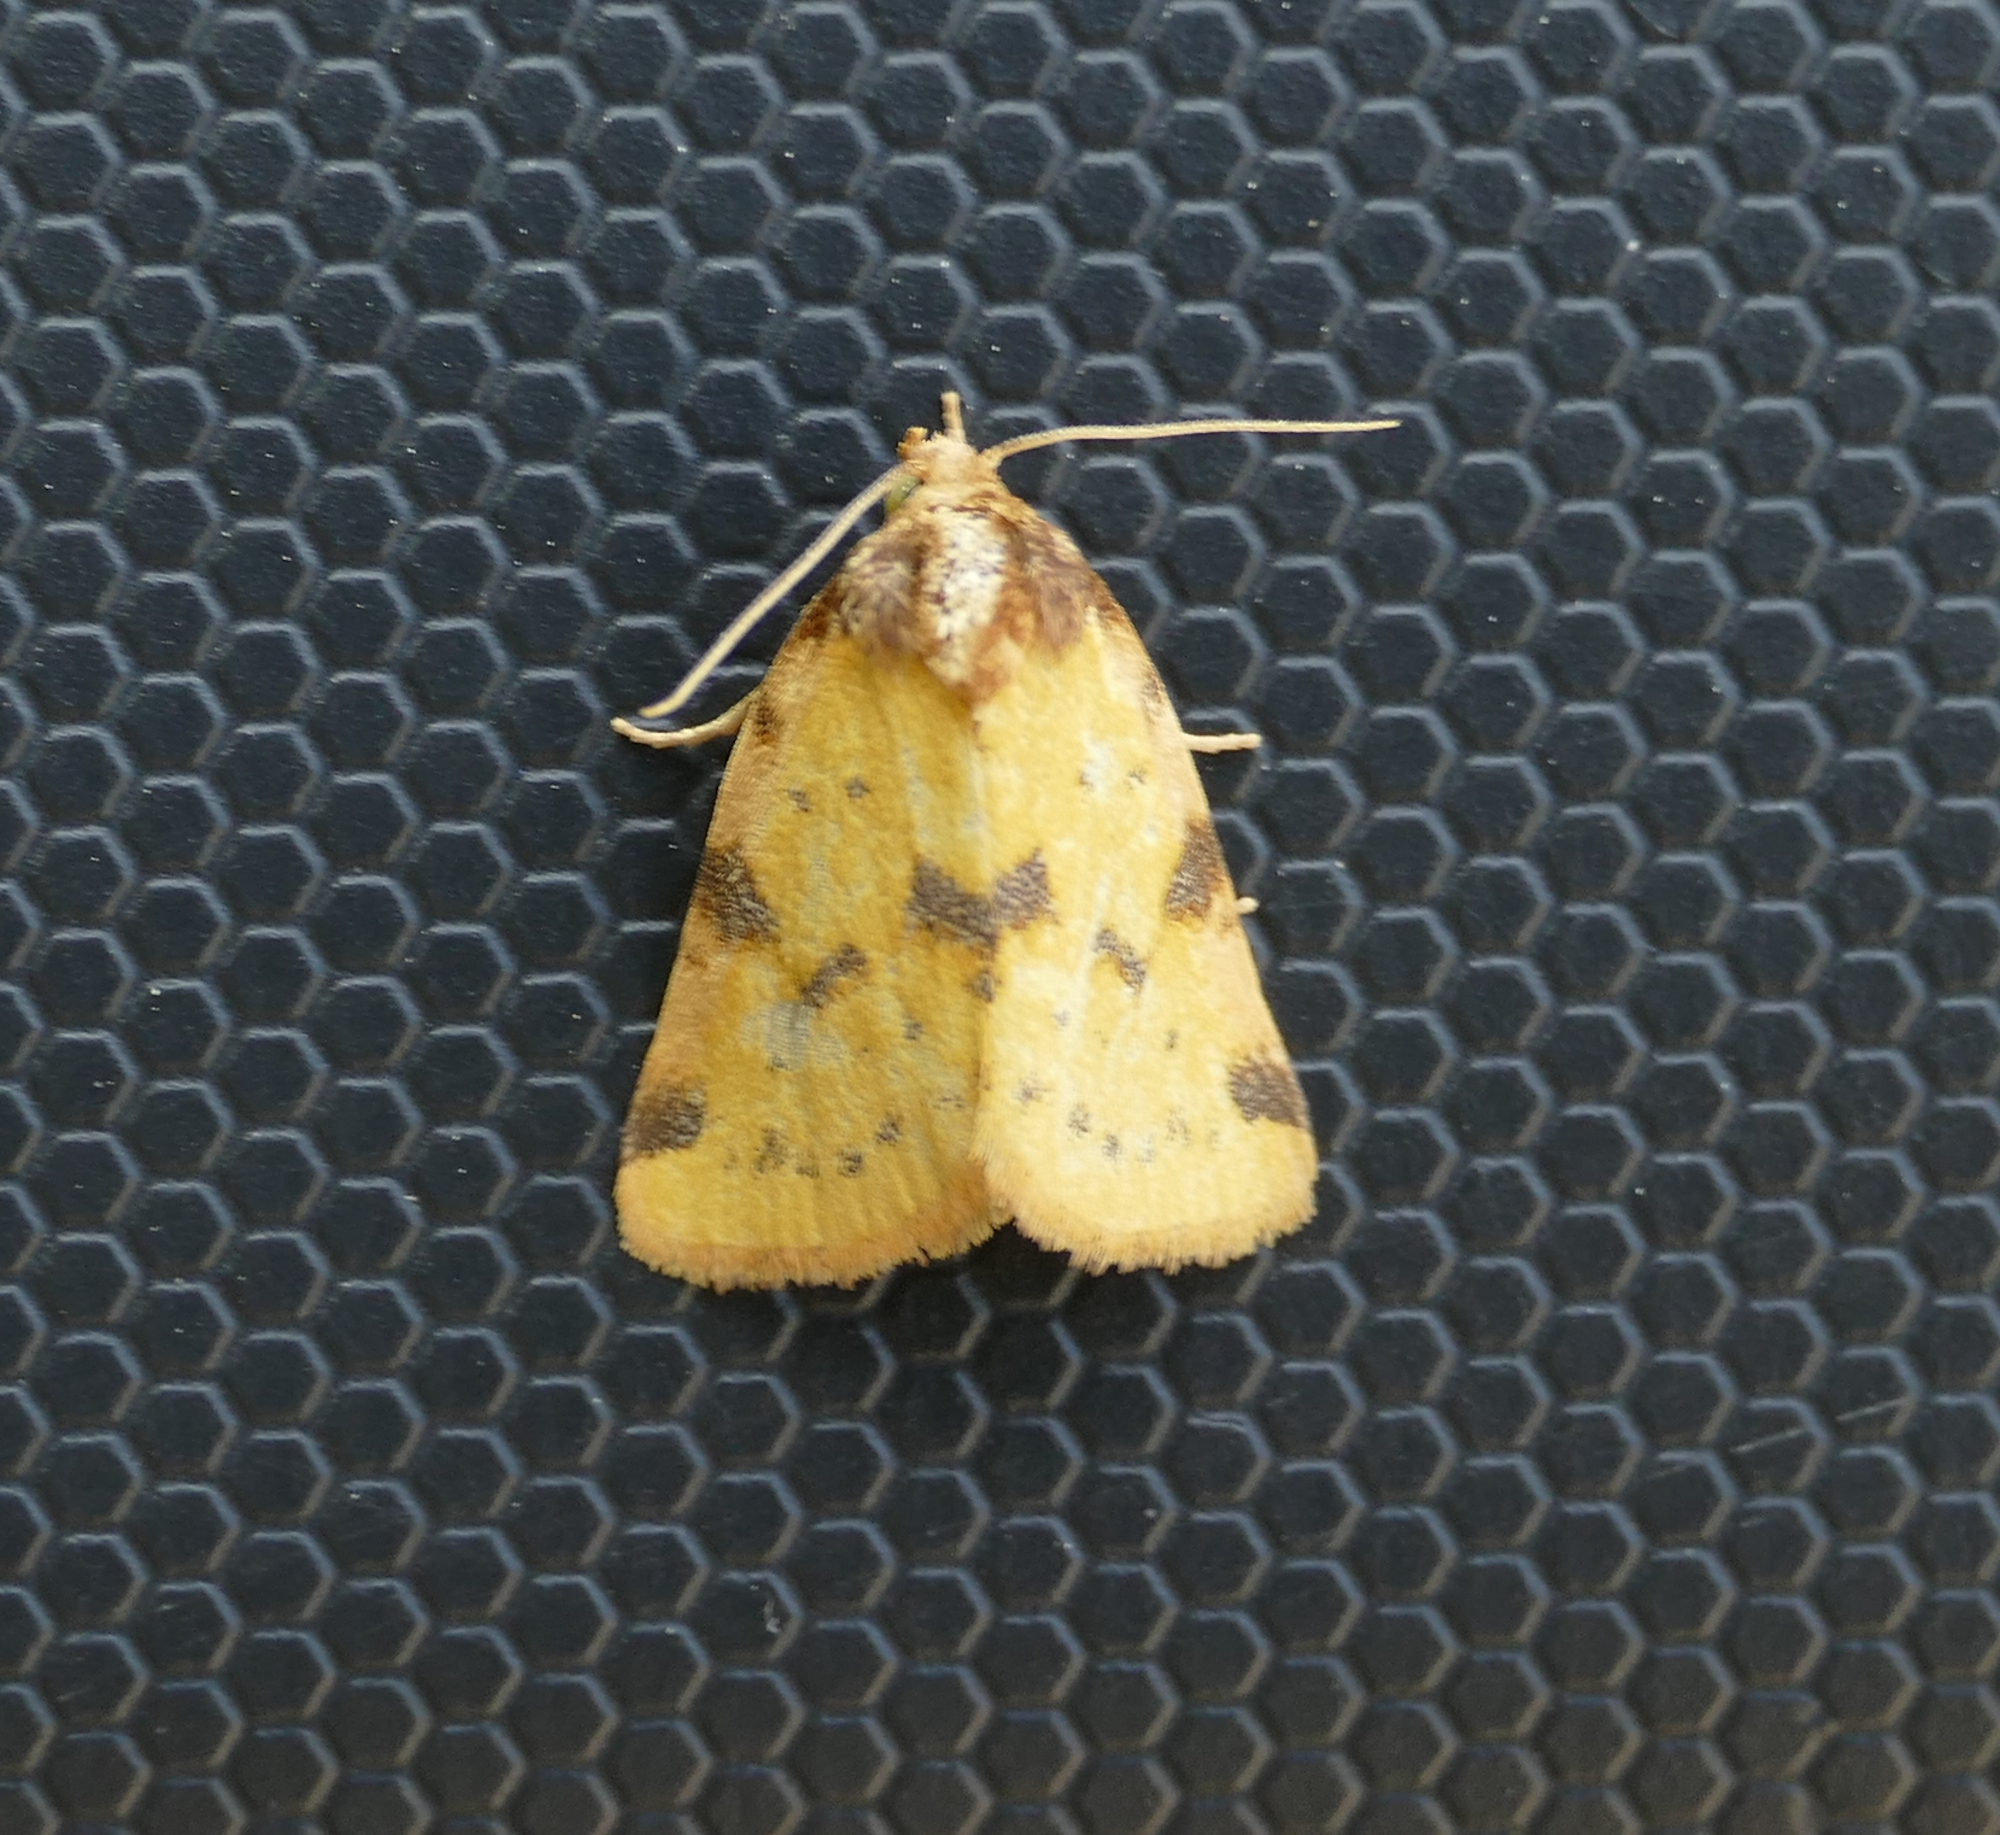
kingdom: Animalia
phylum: Arthropoda
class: Insecta
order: Lepidoptera
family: Noctuidae
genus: Azenia
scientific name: Azenia obtusa
